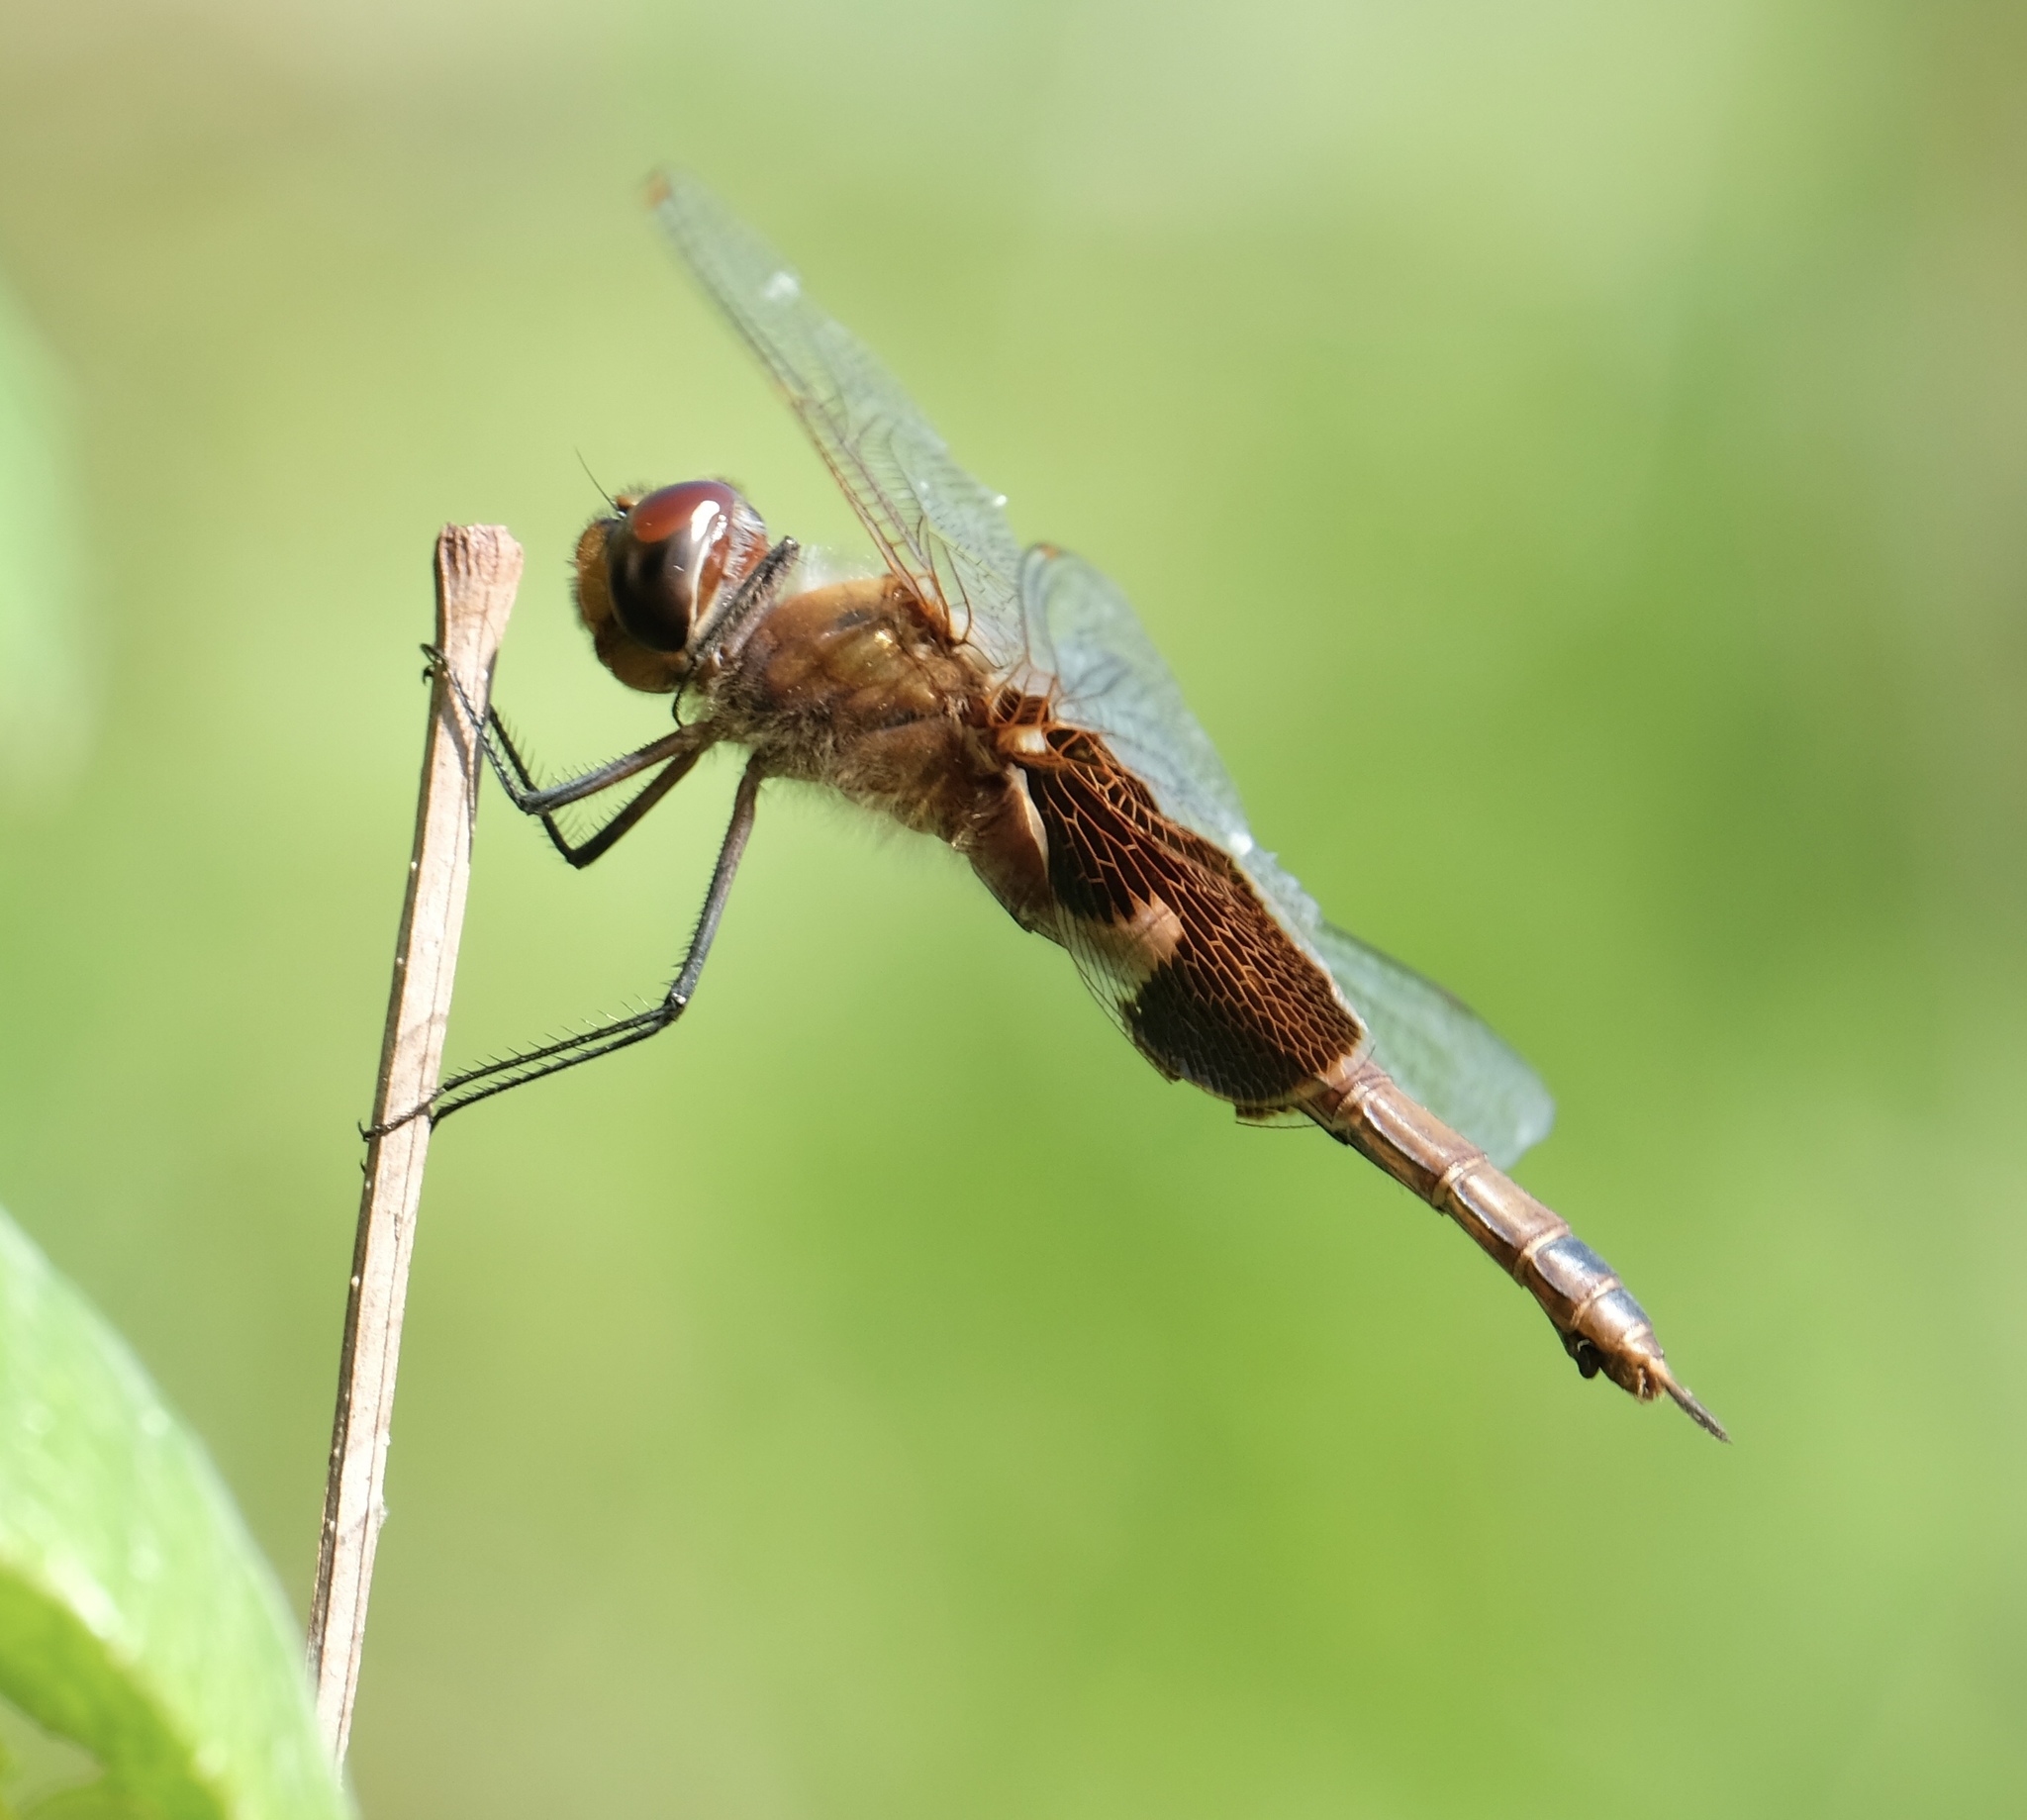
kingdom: Animalia
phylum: Arthropoda
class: Insecta
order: Odonata
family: Libellulidae
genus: Tramea
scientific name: Tramea onusta
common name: Red saddlebags
